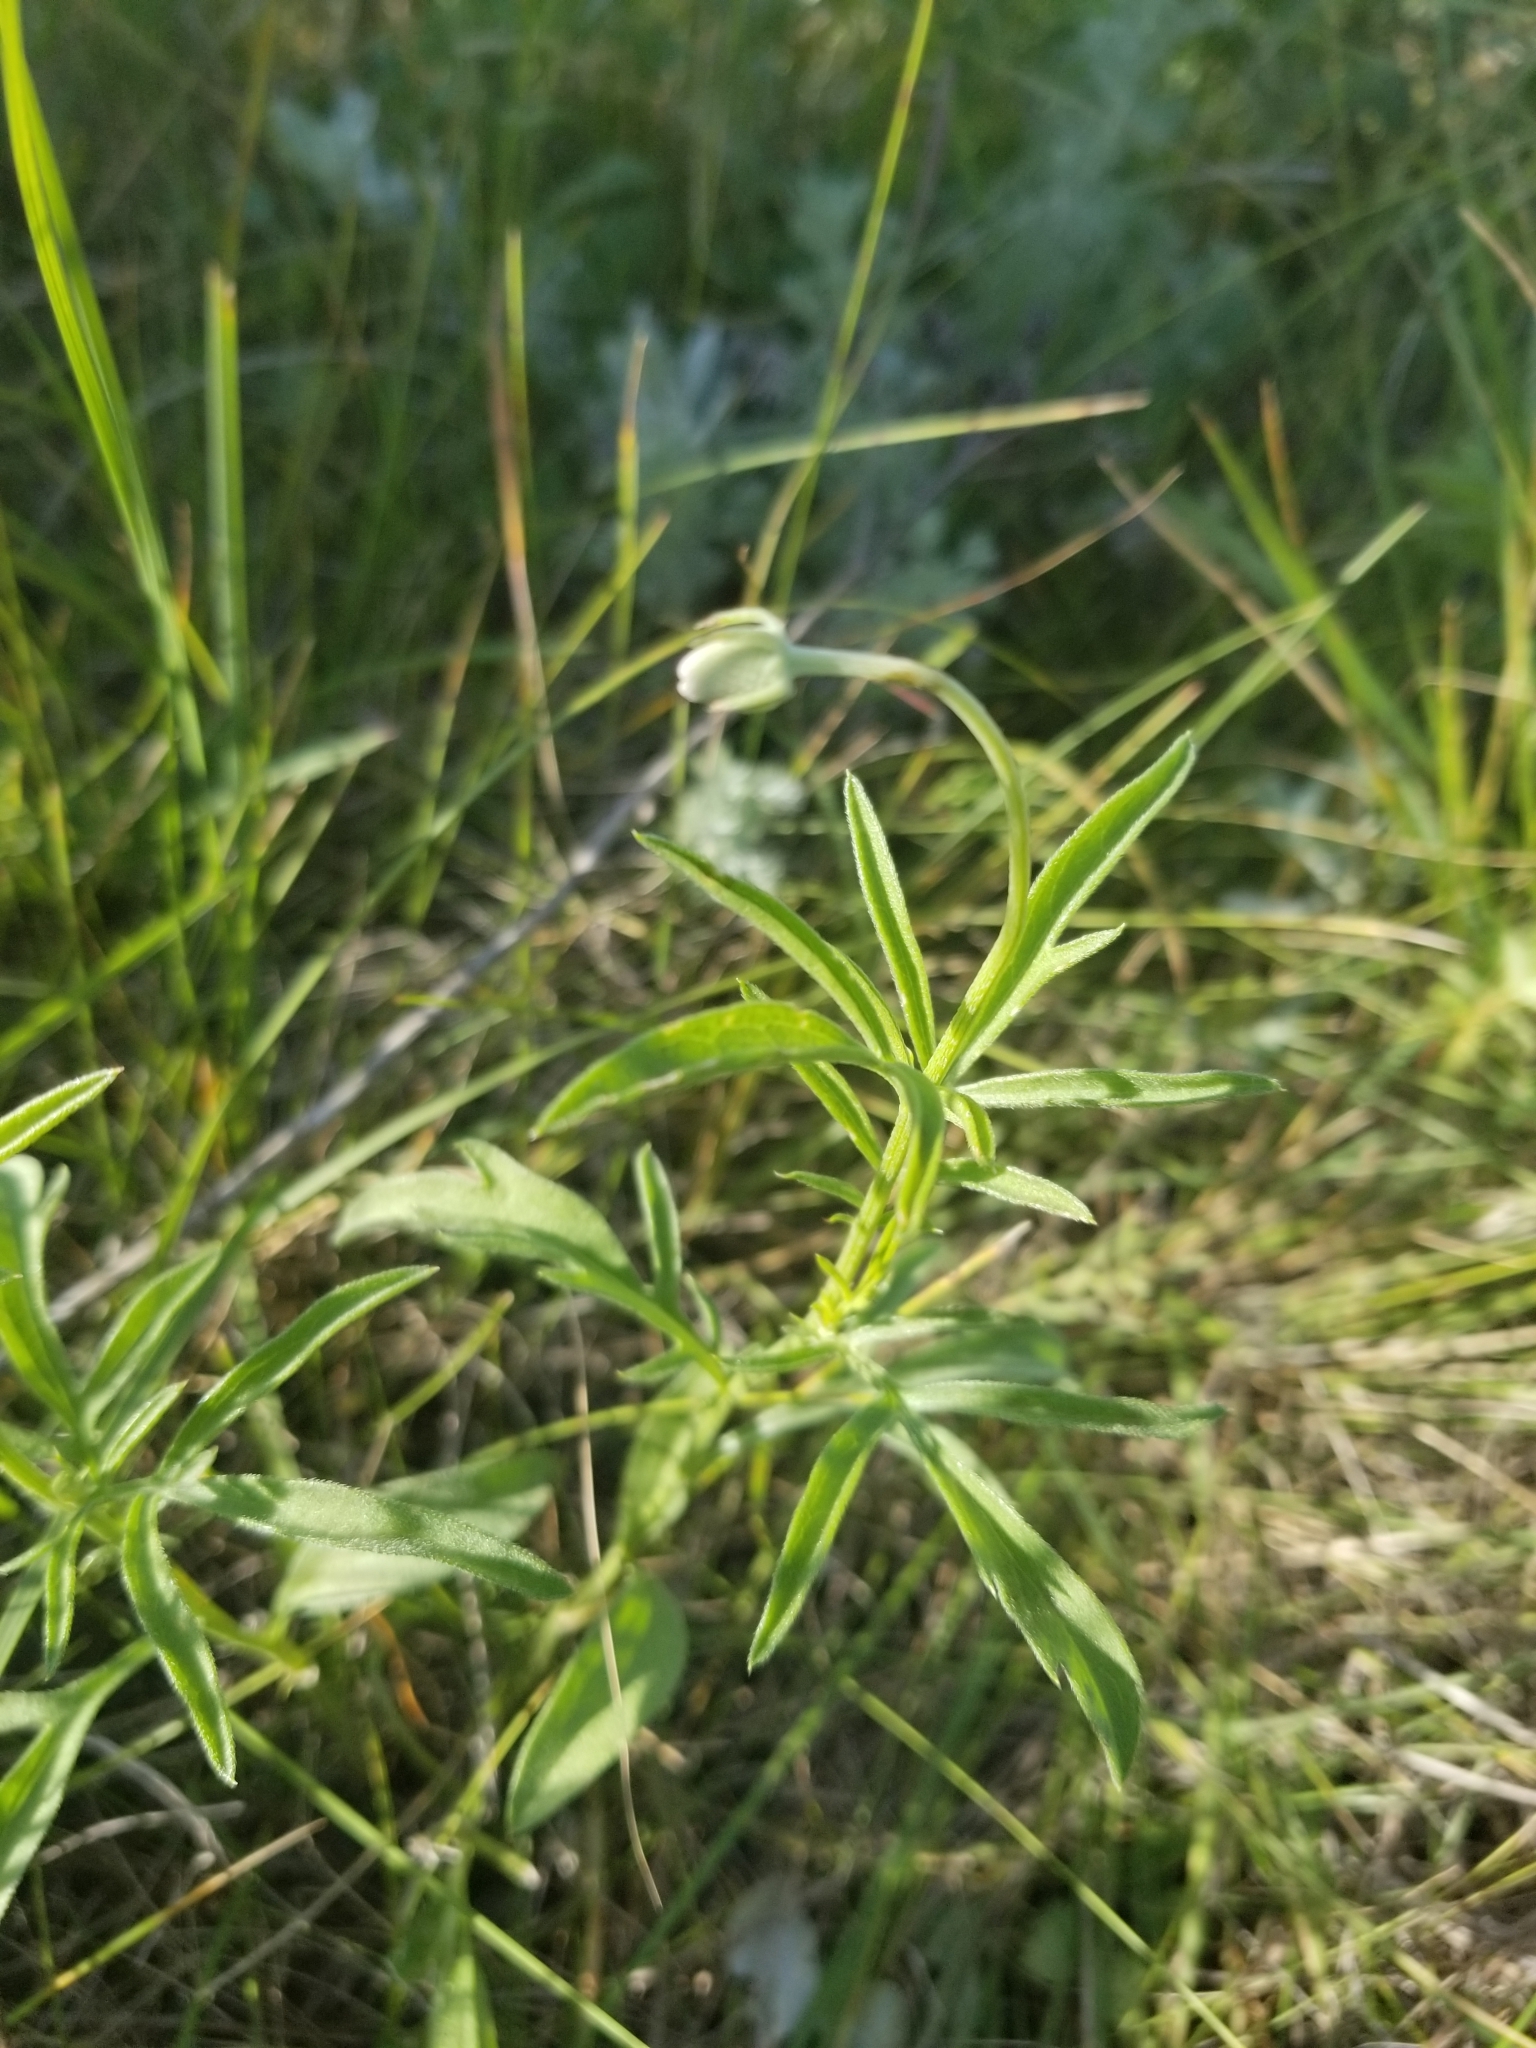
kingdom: Plantae
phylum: Tracheophyta
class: Magnoliopsida
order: Asterales
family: Asteraceae
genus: Ratibida
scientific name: Ratibida columnifera
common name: Prairie coneflower
